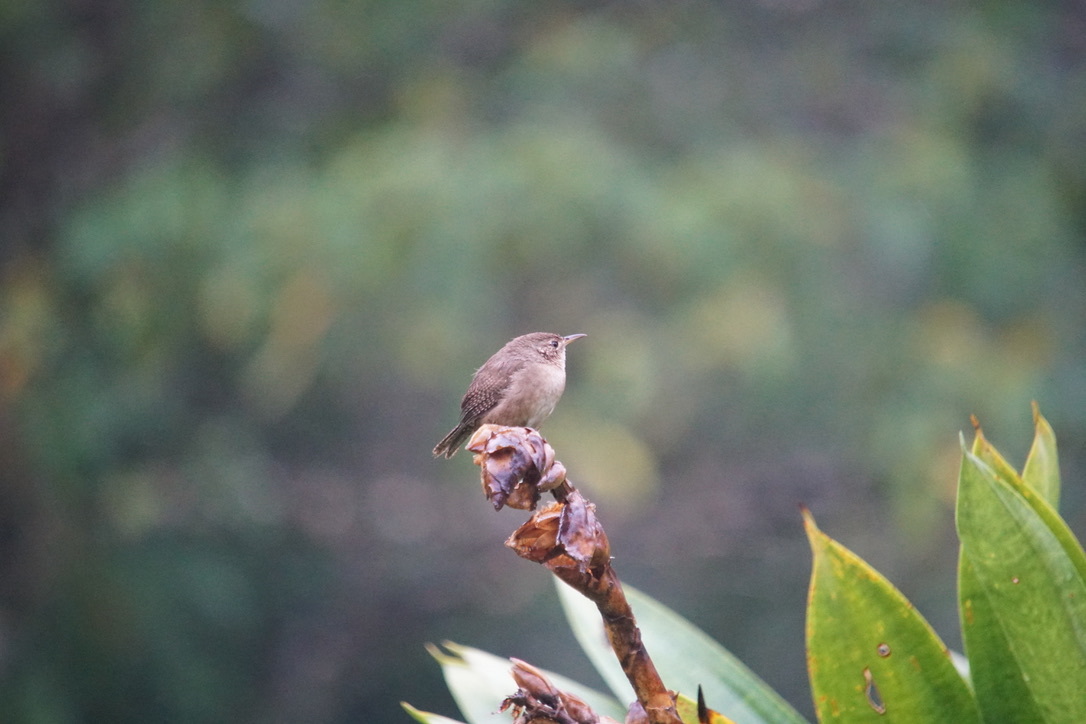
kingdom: Animalia
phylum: Chordata
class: Aves
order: Passeriformes
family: Troglodytidae
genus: Troglodytes
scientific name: Troglodytes aedon
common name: House wren
